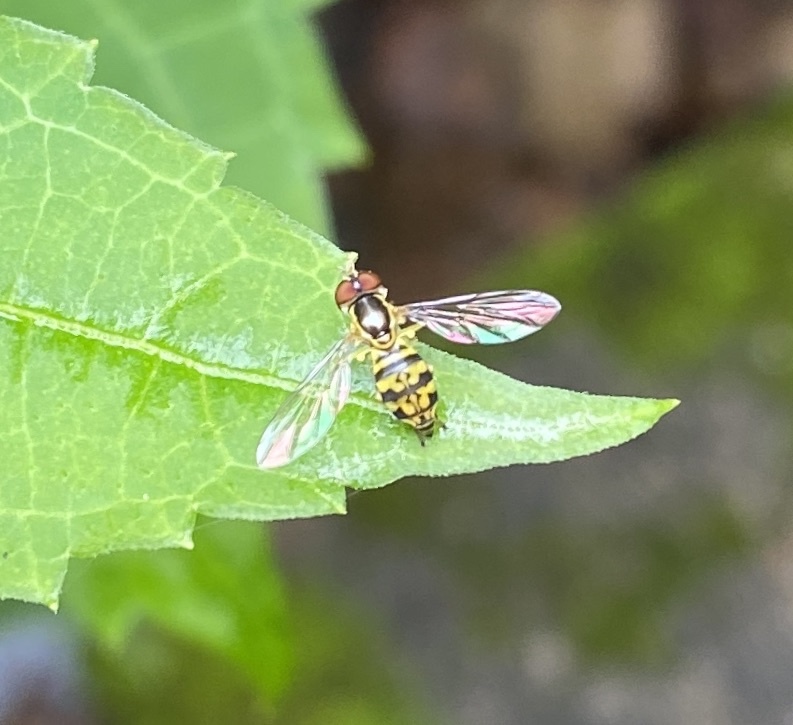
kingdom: Animalia
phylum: Arthropoda
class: Insecta
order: Diptera
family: Syrphidae
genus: Toxomerus
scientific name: Toxomerus geminatus
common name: Eastern calligrapher
